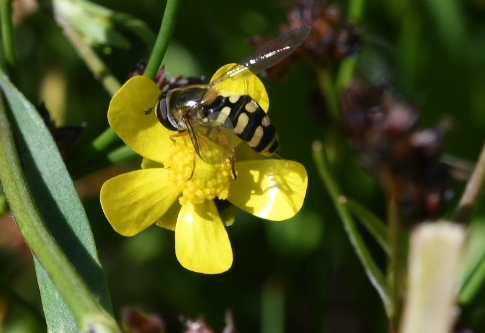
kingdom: Animalia
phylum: Arthropoda
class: Insecta
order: Diptera
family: Syrphidae
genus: Eupeodes
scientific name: Eupeodes corollae
